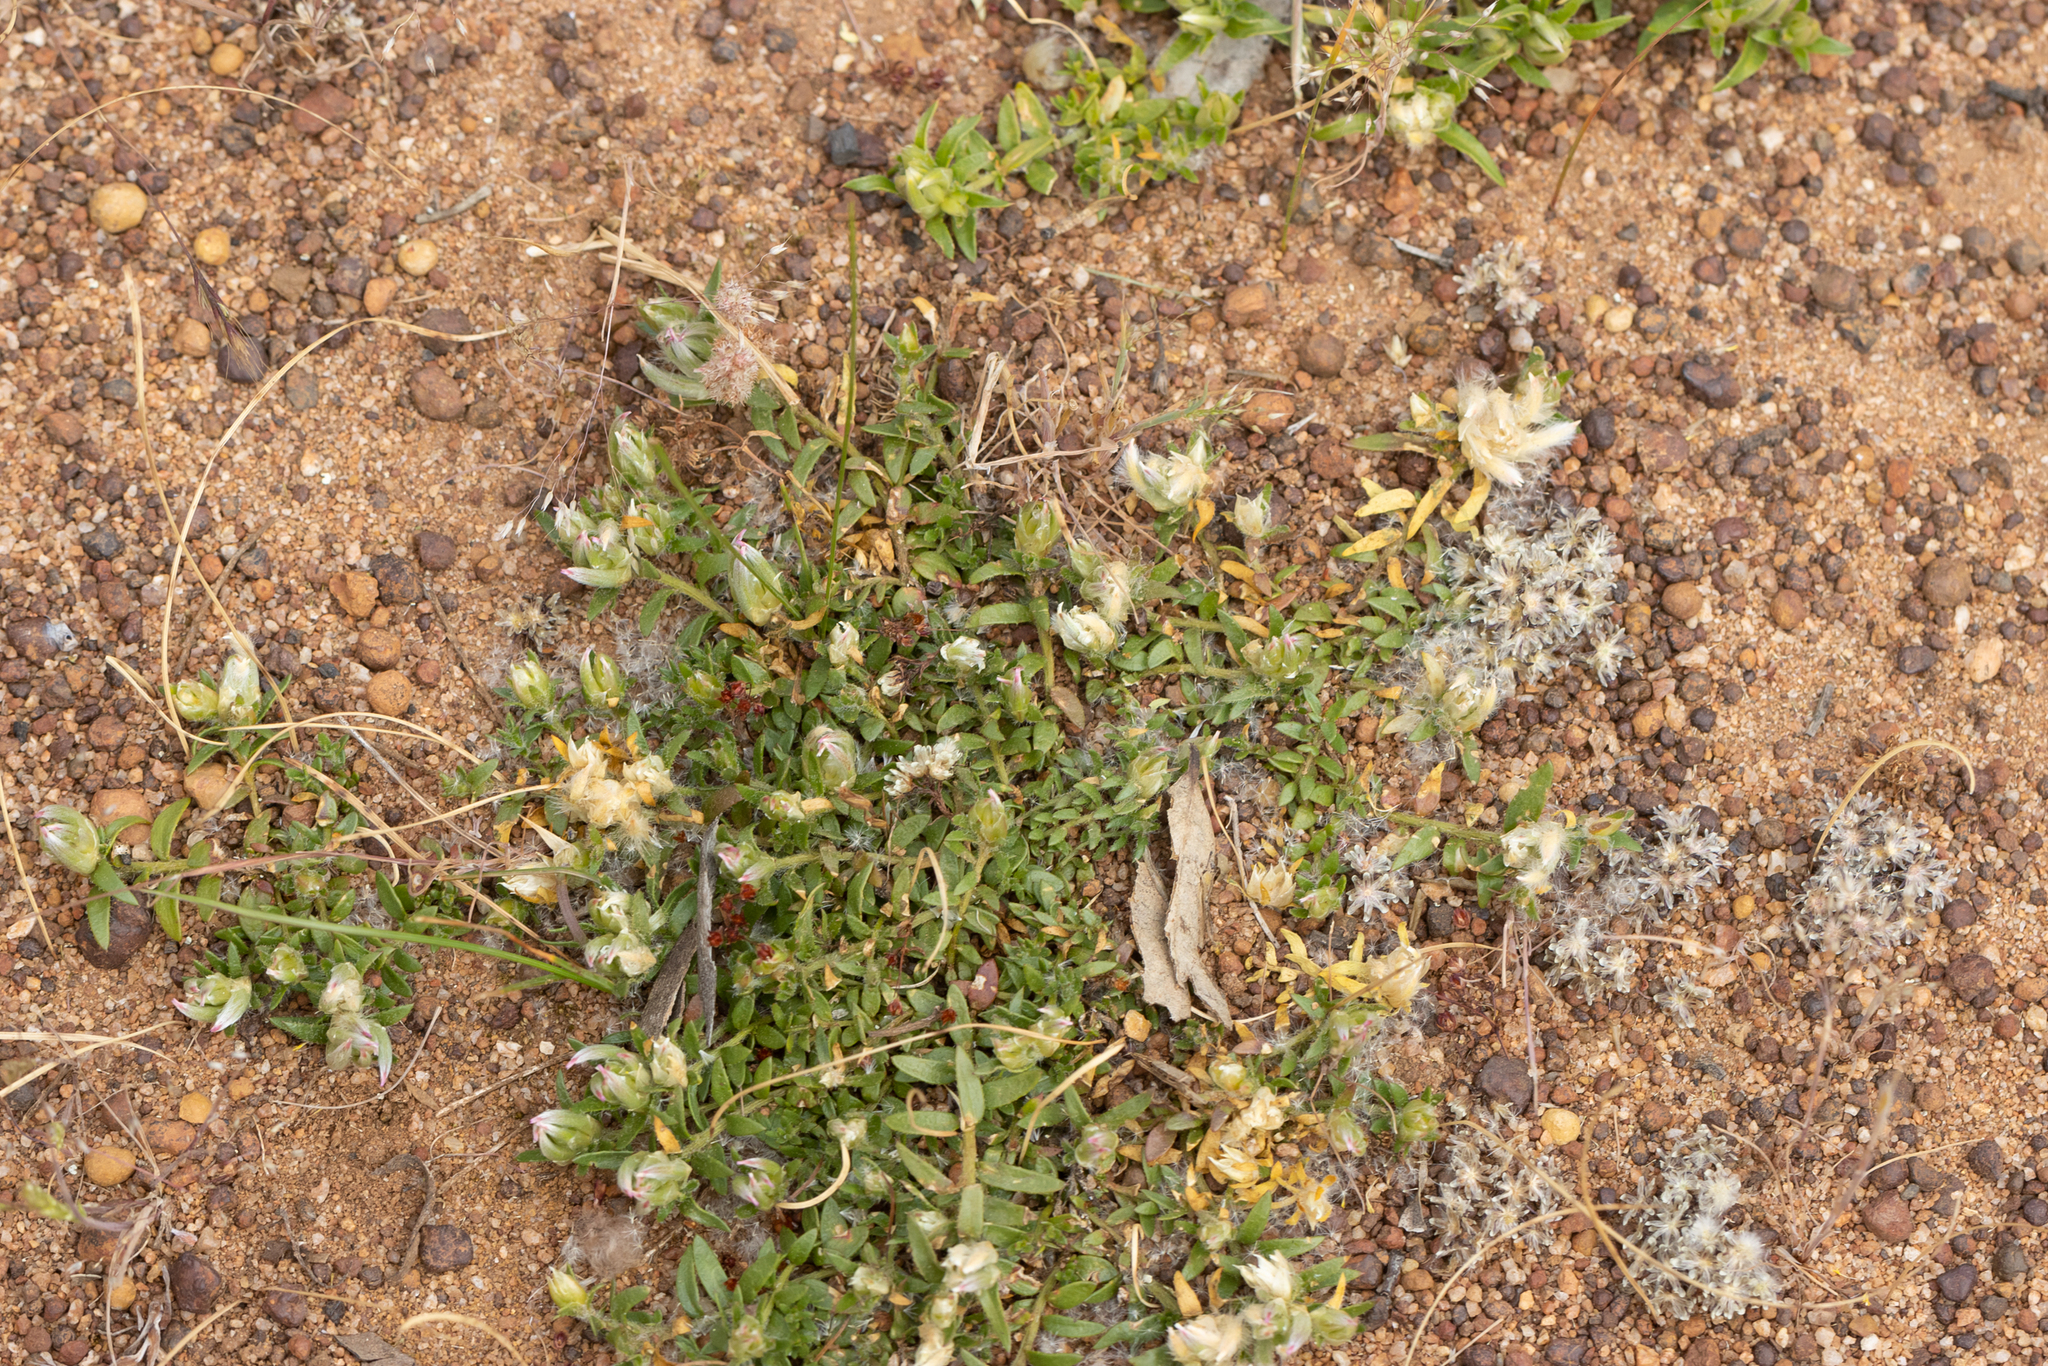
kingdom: Plantae
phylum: Tracheophyta
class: Magnoliopsida
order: Caryophyllales
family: Amaranthaceae
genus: Ptilotus
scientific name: Ptilotus declinatus
